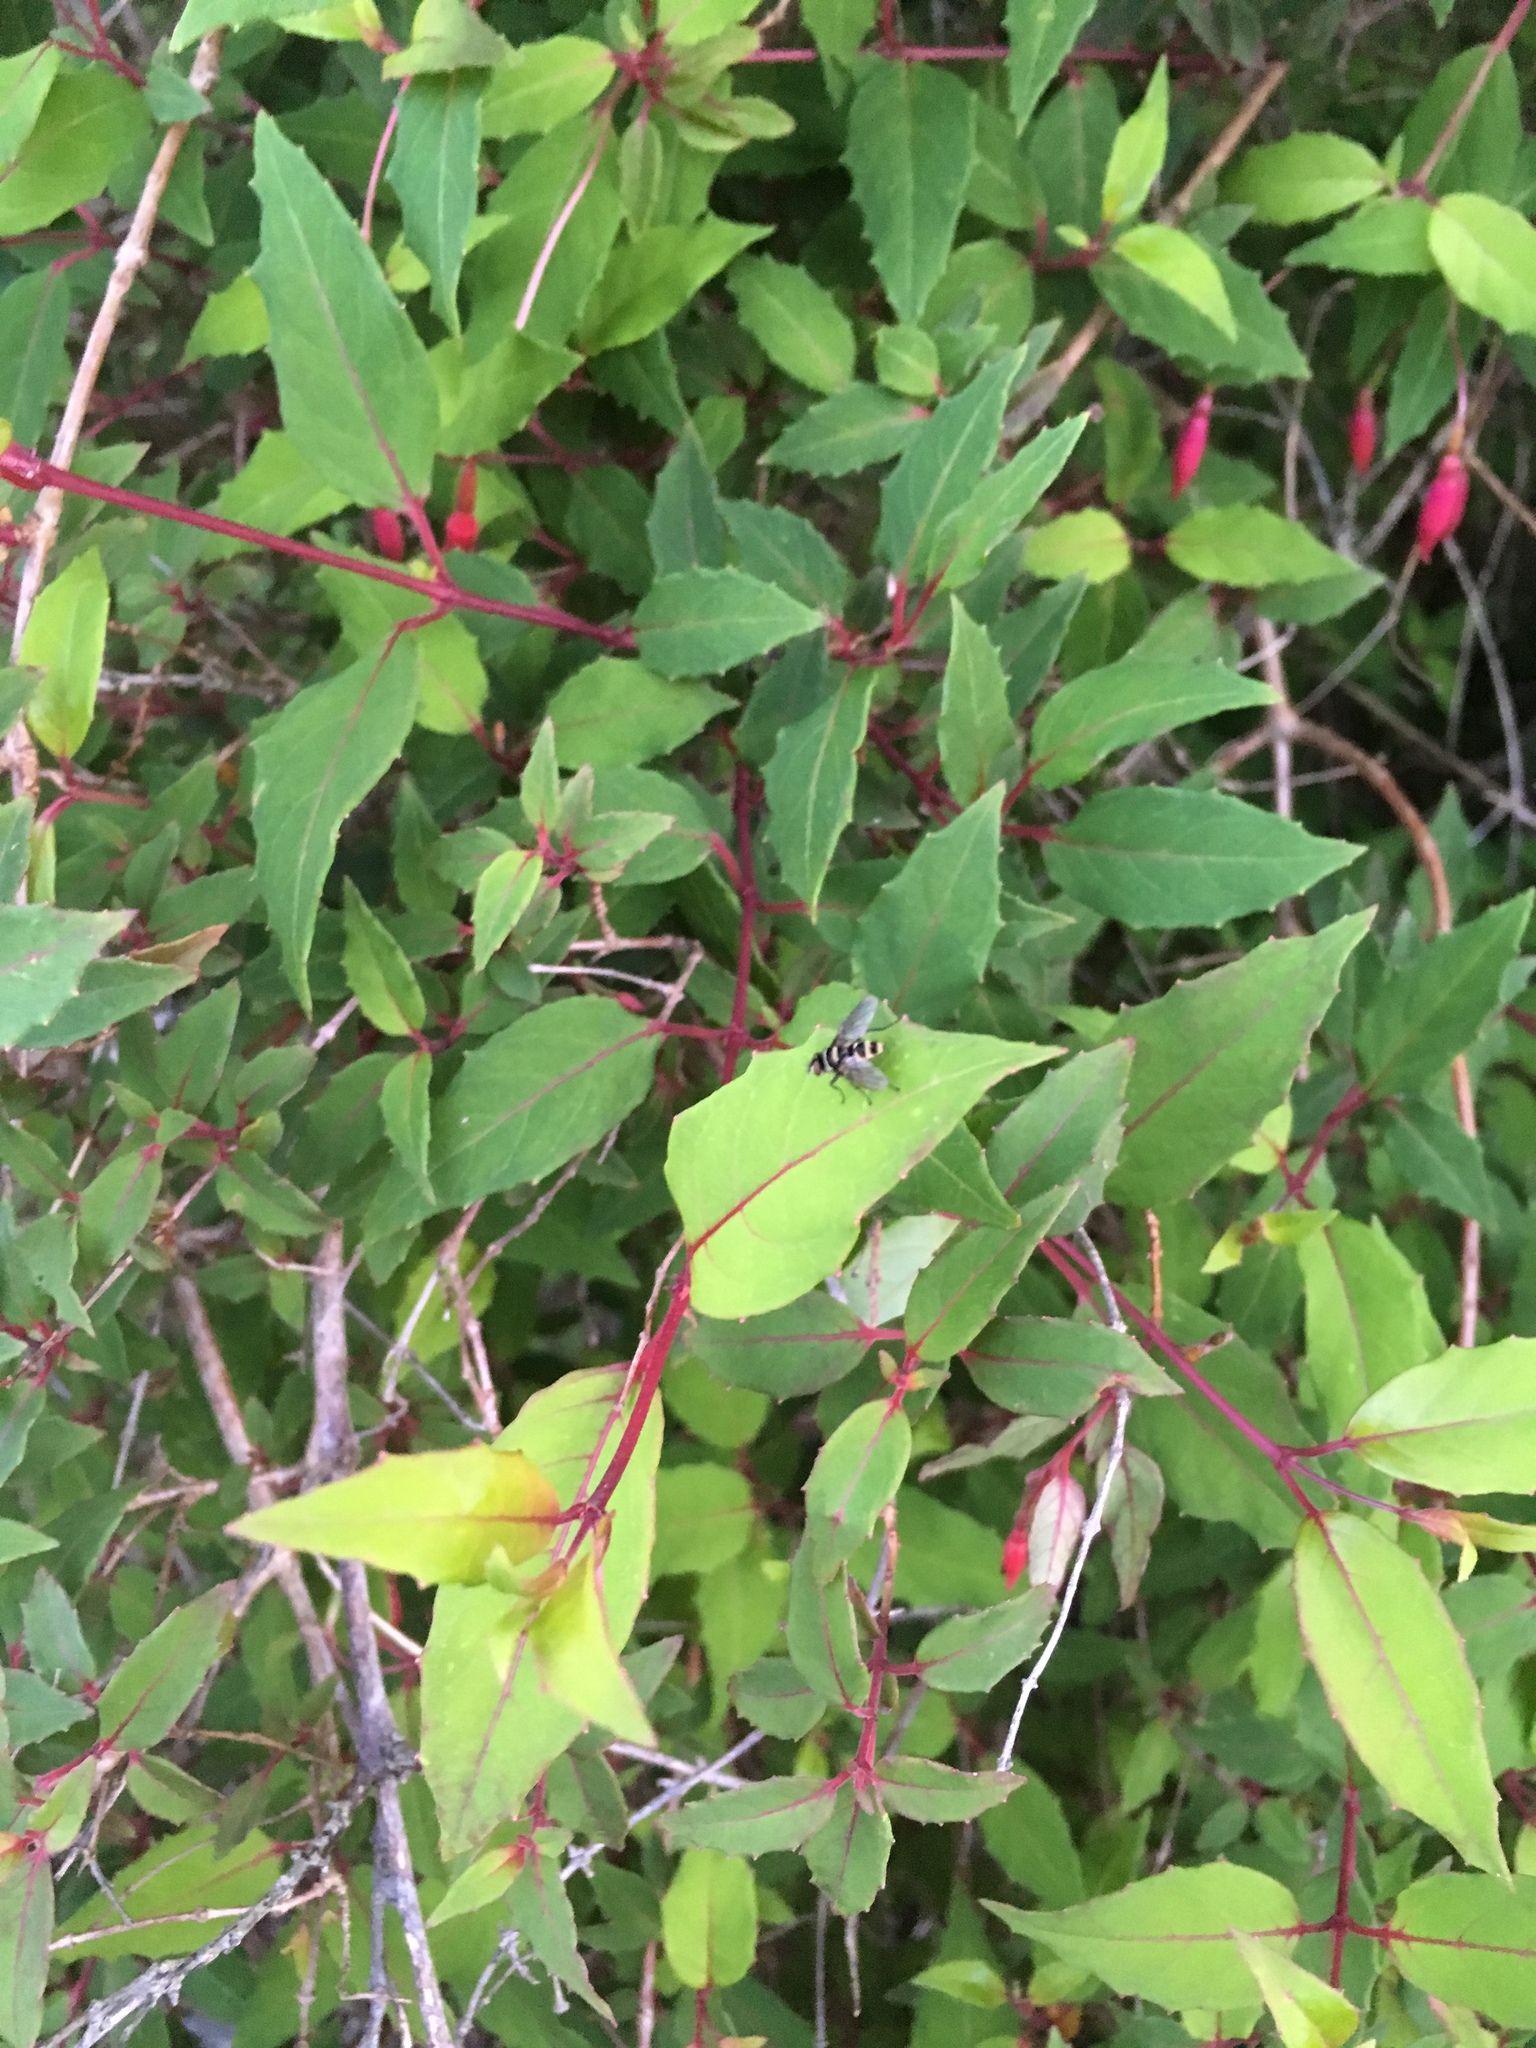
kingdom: Animalia
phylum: Arthropoda
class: Insecta
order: Diptera
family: Tachinidae
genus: Trigonospila
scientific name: Trigonospila brevifacies
